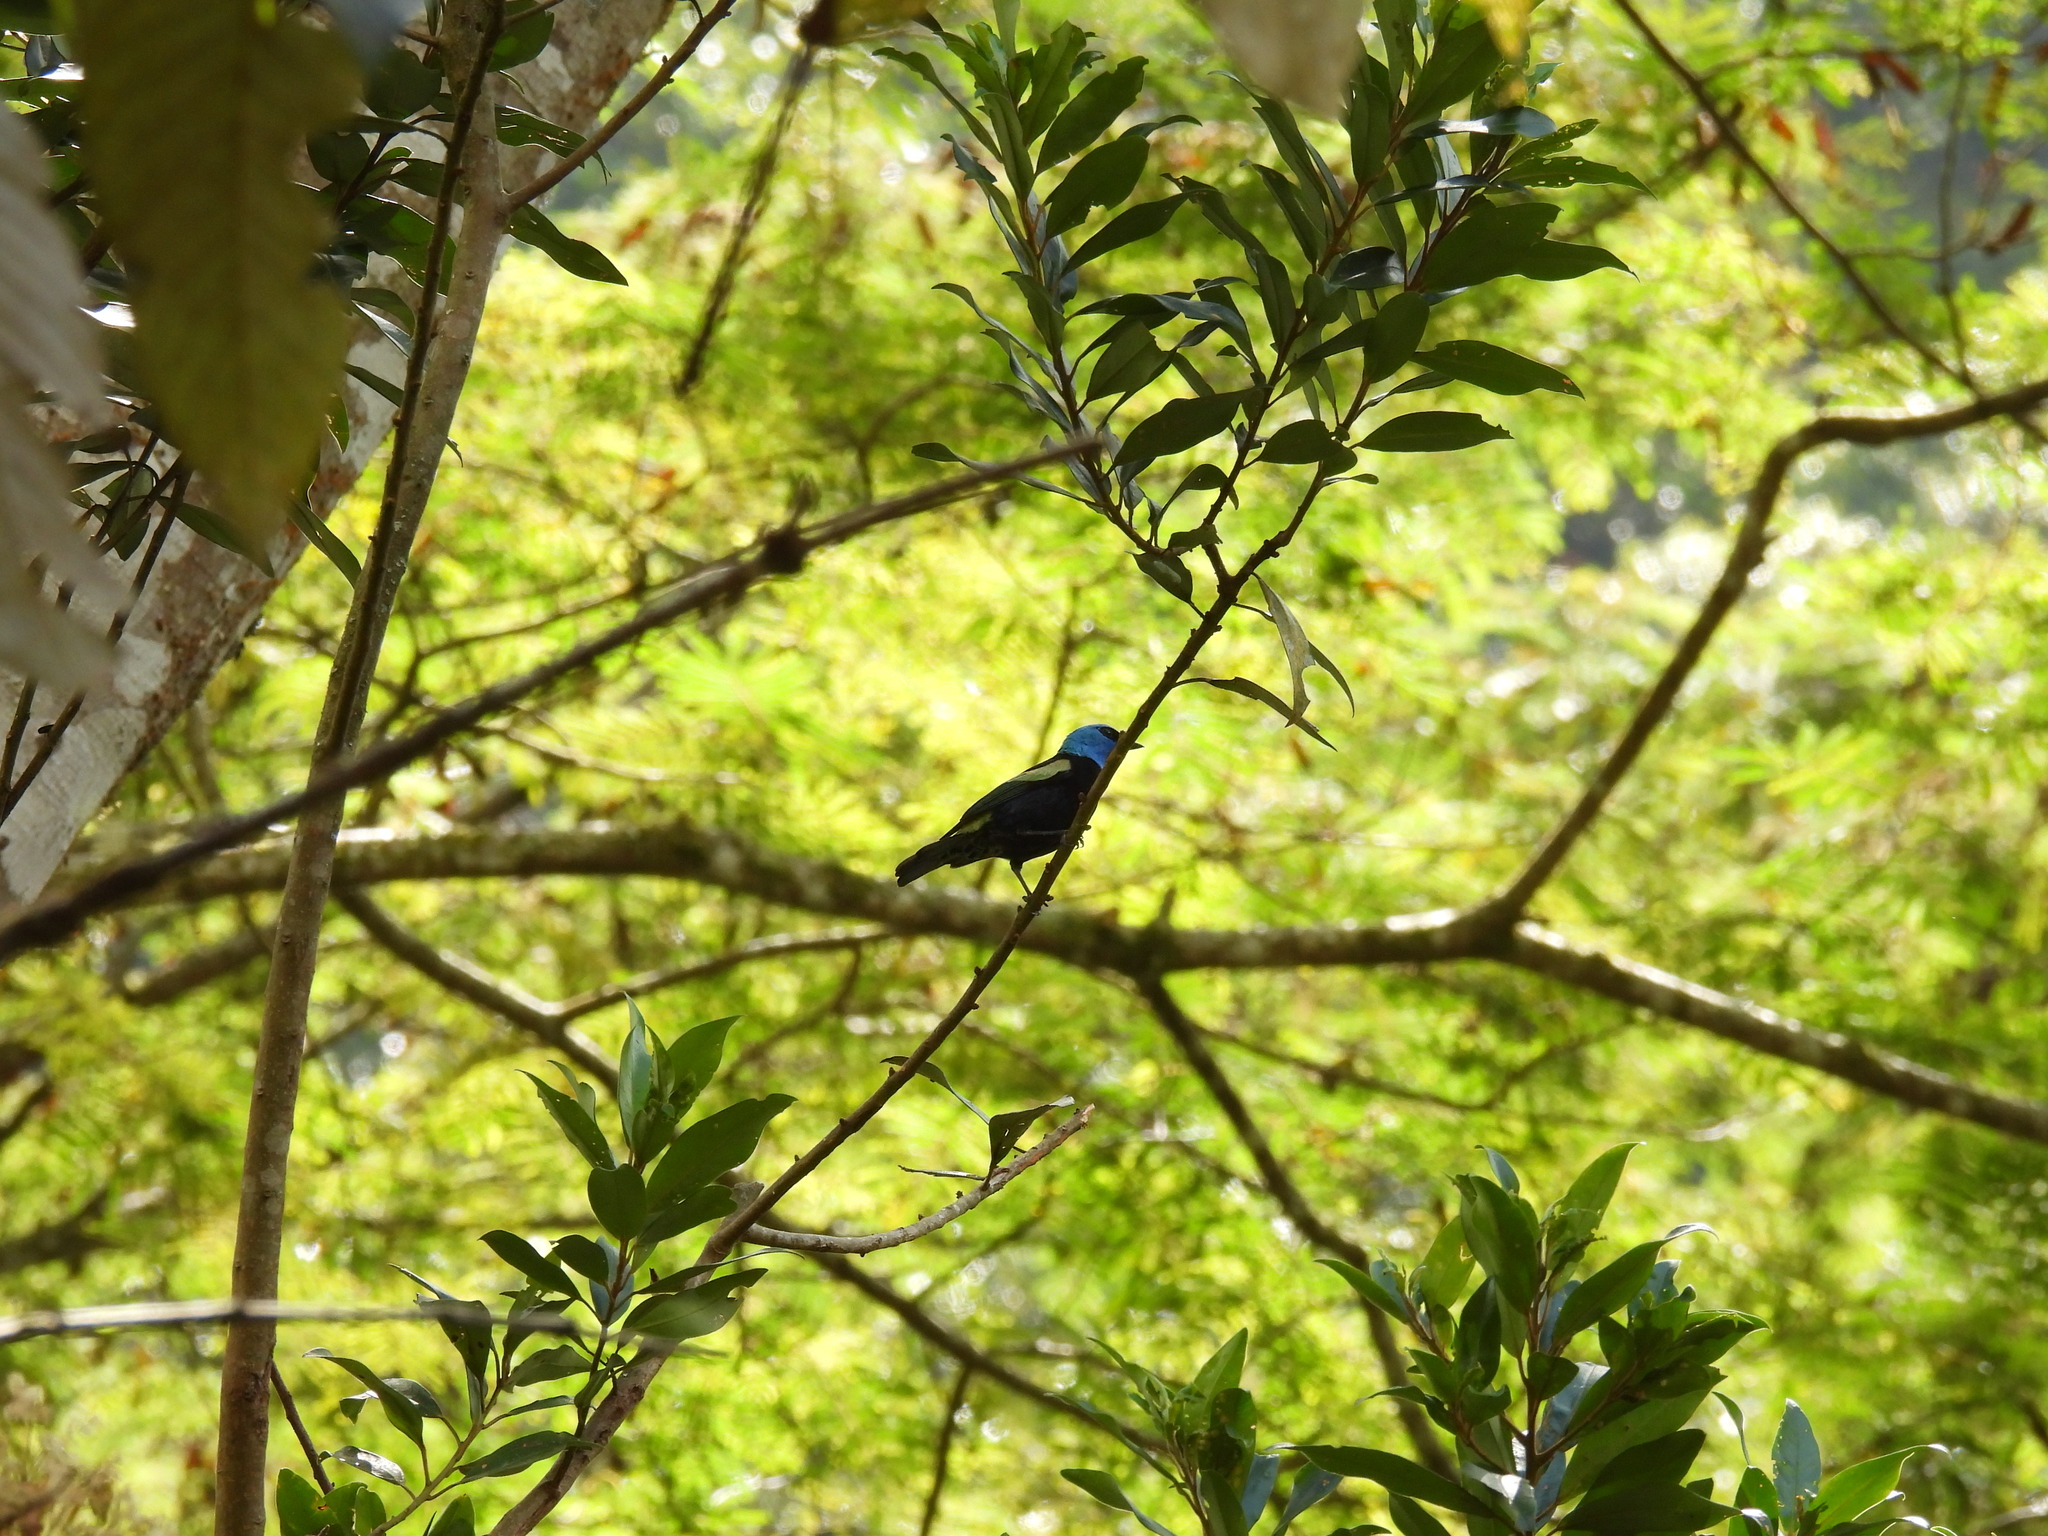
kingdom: Animalia
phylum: Chordata
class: Aves
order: Passeriformes
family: Thraupidae
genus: Stilpnia
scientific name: Stilpnia cyanicollis
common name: Blue-necked tanager
